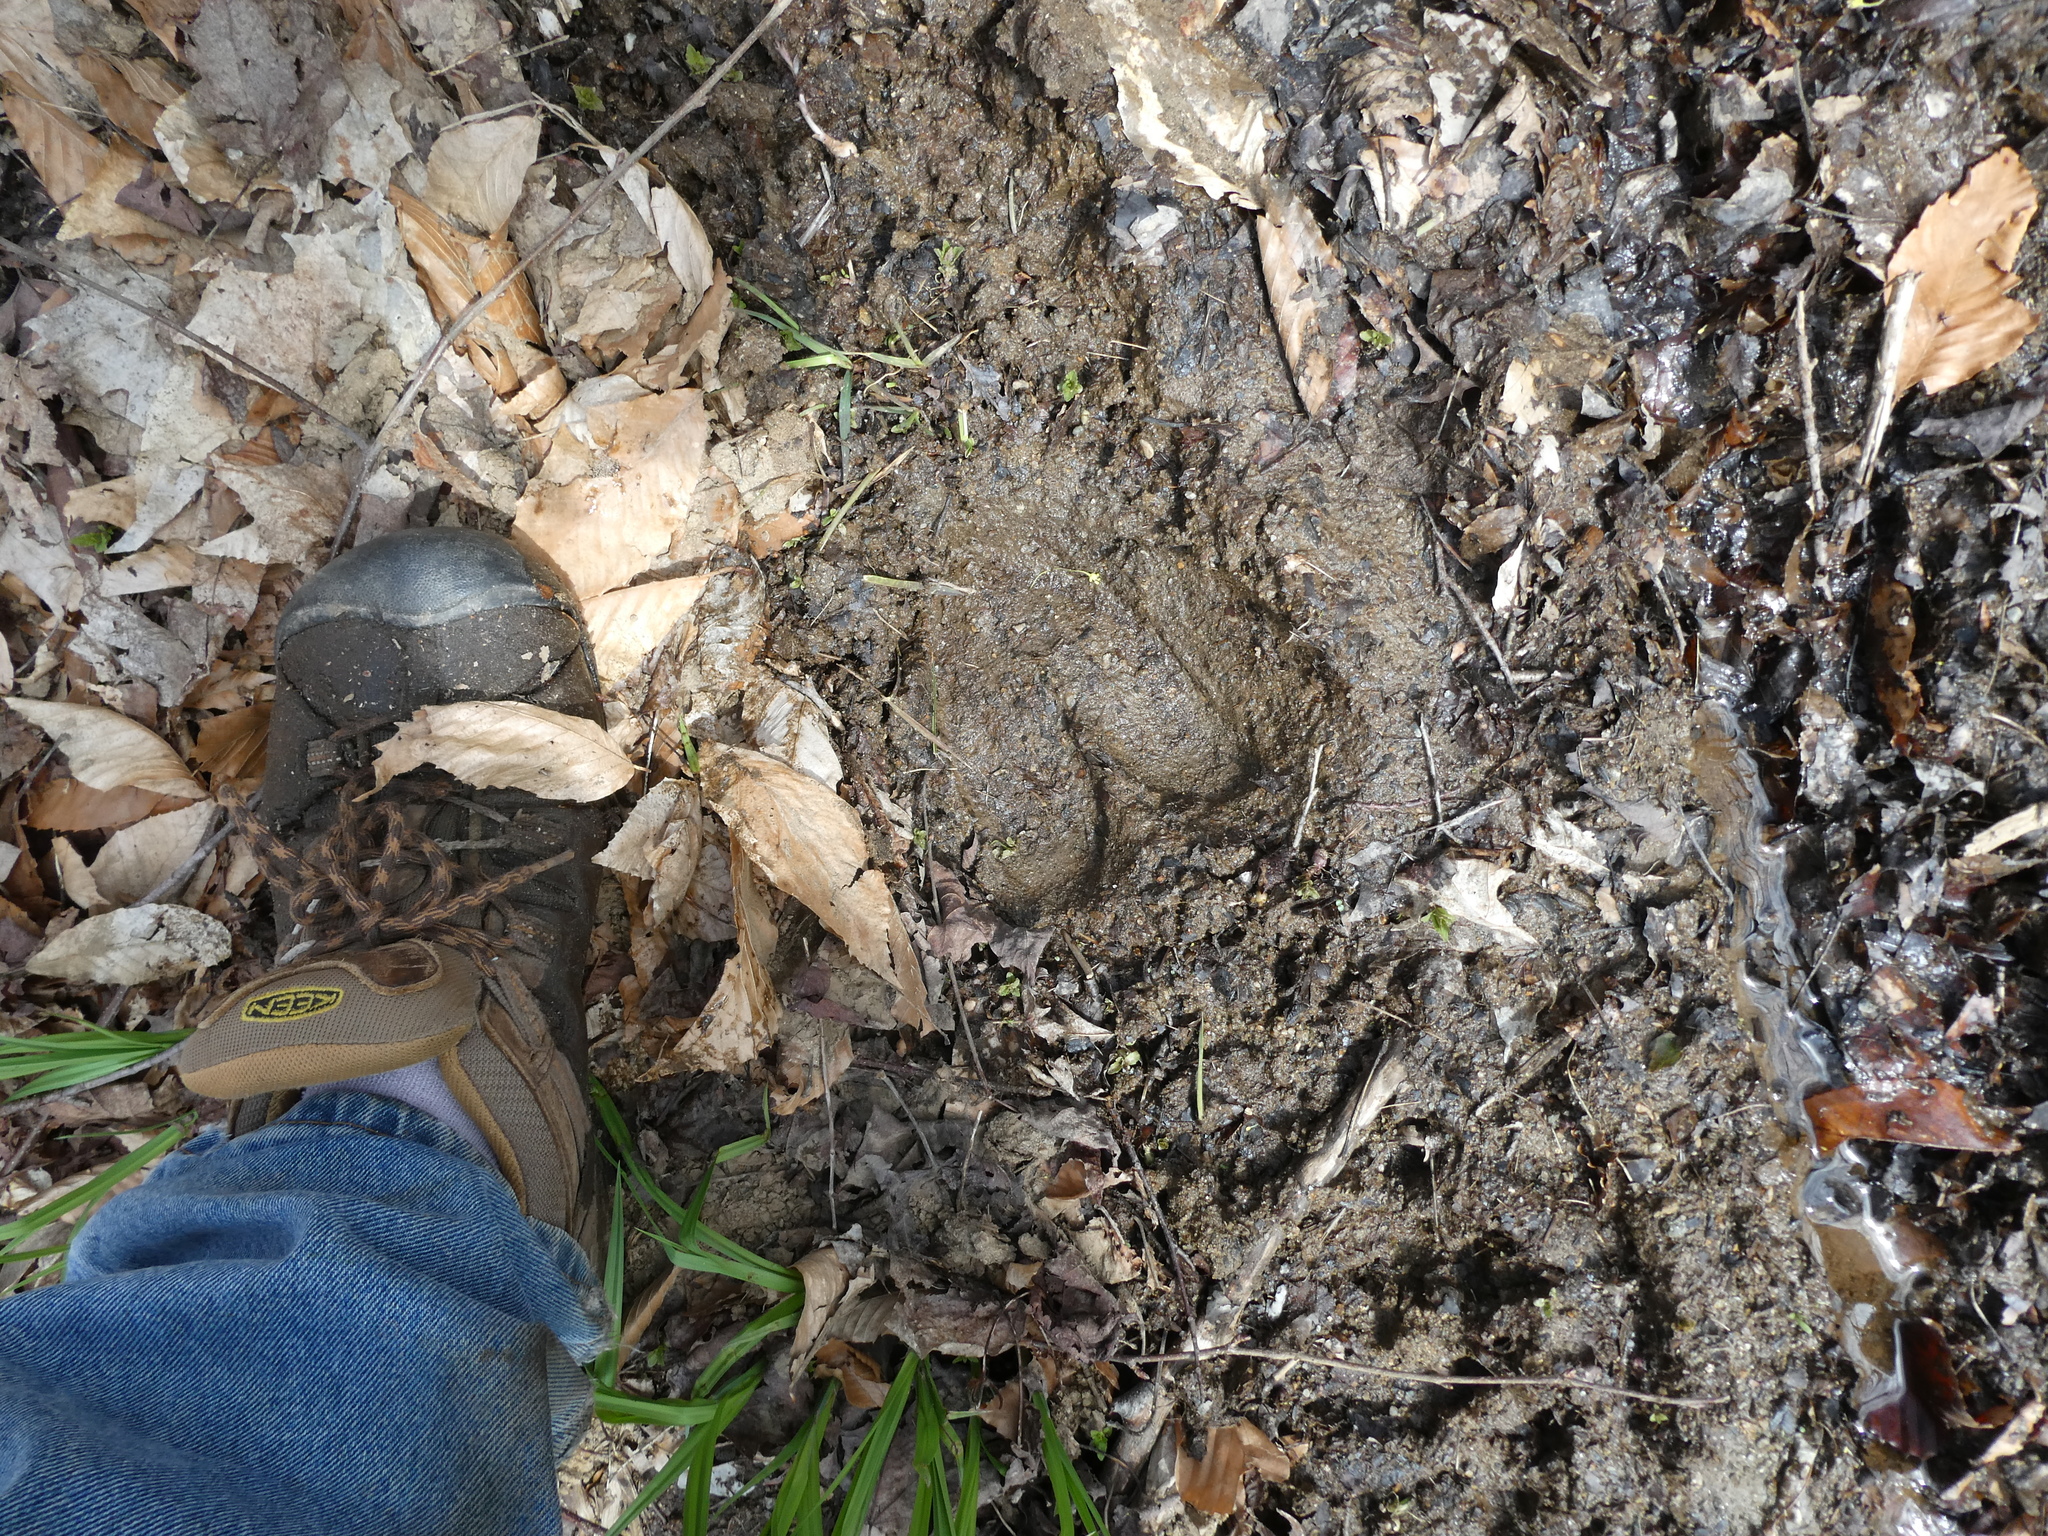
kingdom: Animalia
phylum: Chordata
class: Mammalia
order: Artiodactyla
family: Cervidae
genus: Alces
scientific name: Alces alces
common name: Moose
